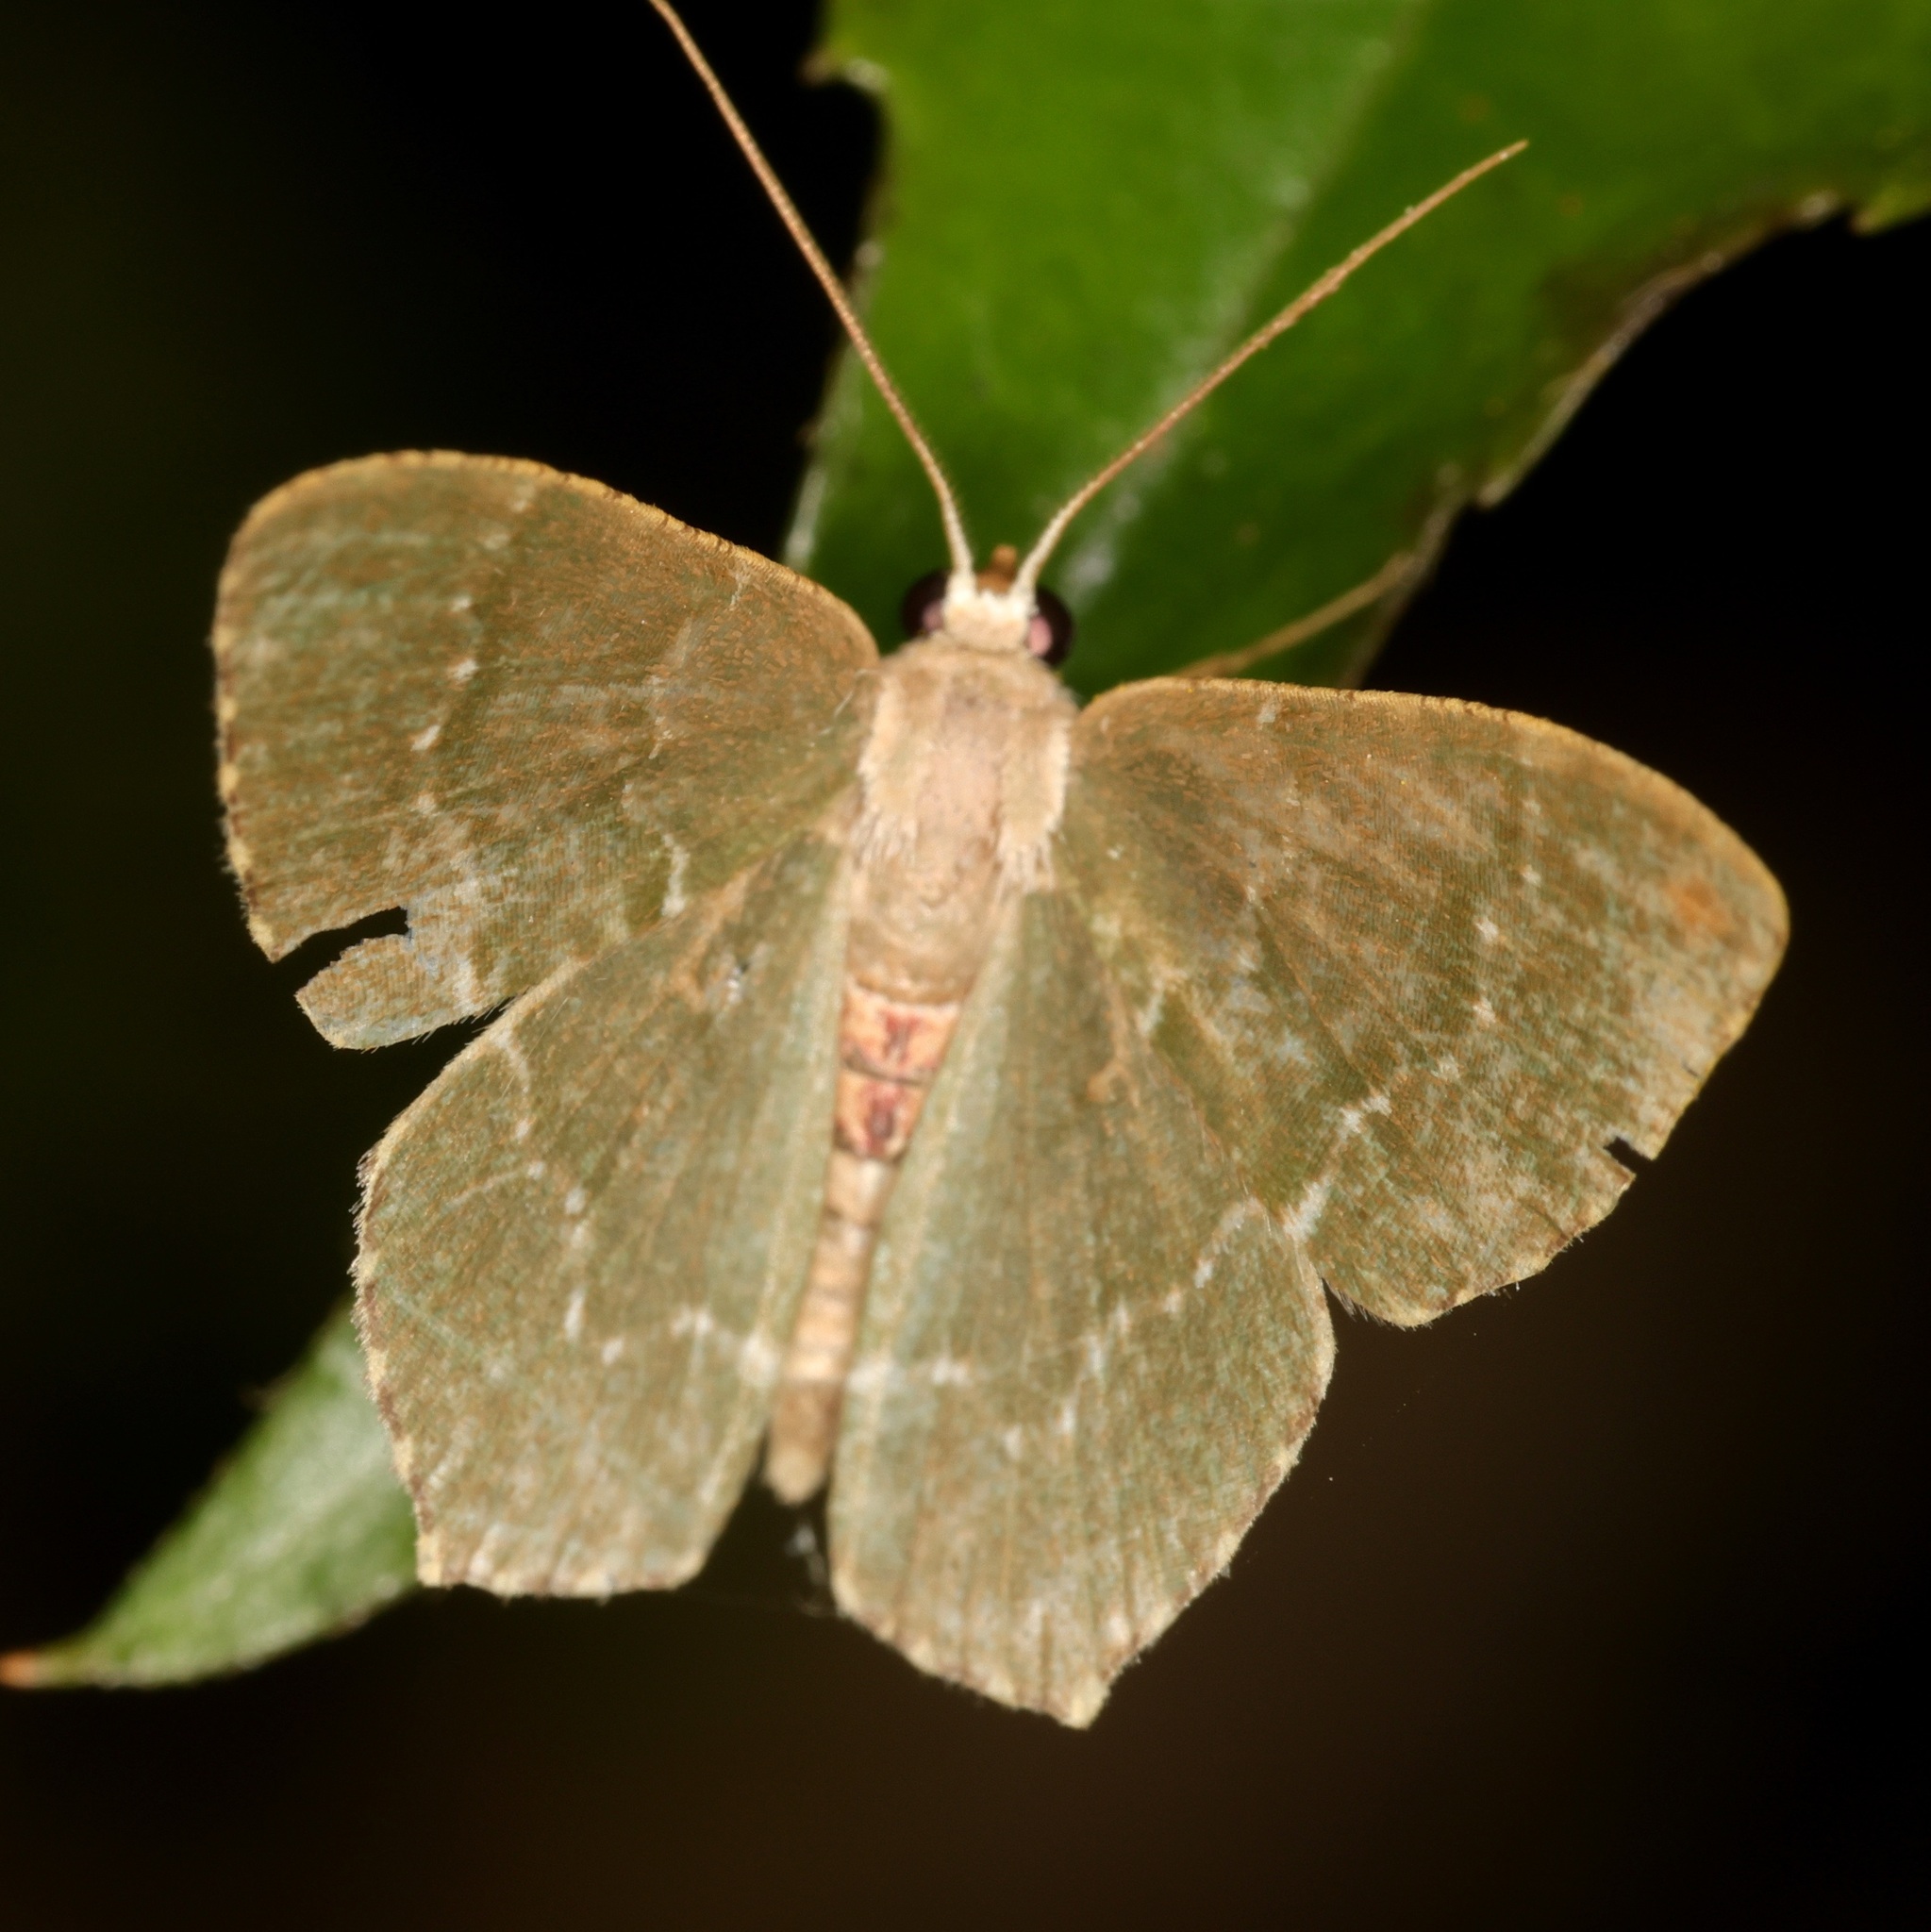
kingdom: Animalia
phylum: Arthropoda
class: Insecta
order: Lepidoptera
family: Geometridae
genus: Hemithea
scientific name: Hemithea marina
